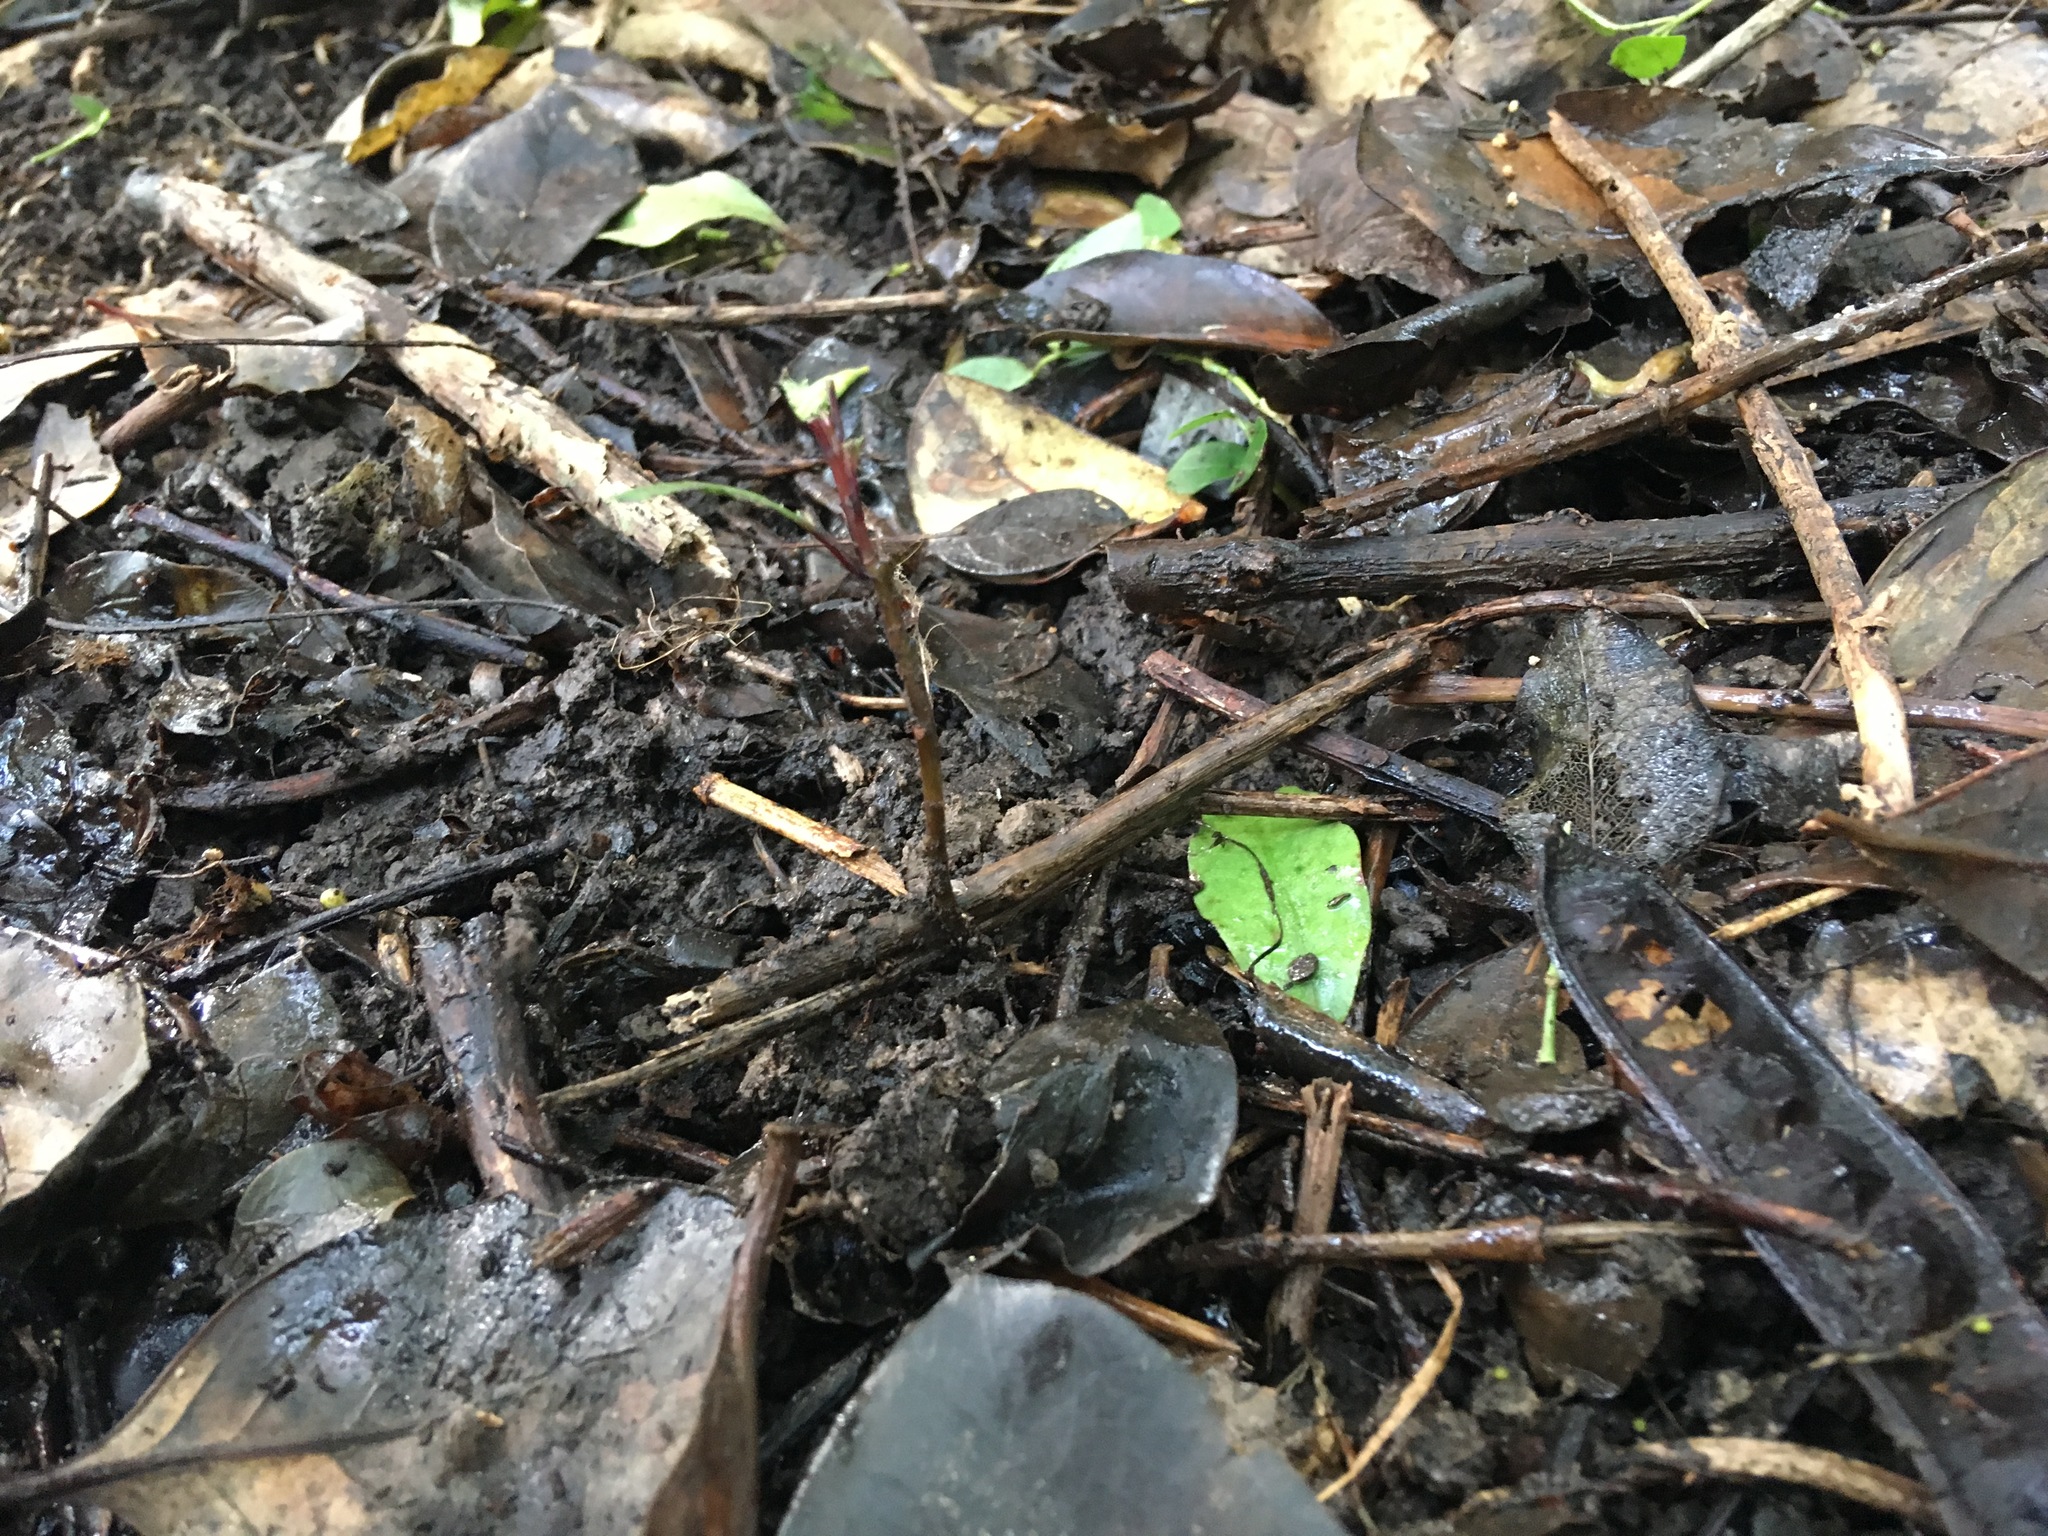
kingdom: Plantae
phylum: Tracheophyta
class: Magnoliopsida
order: Laurales
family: Monimiaceae
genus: Hedycarya
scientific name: Hedycarya arborea
